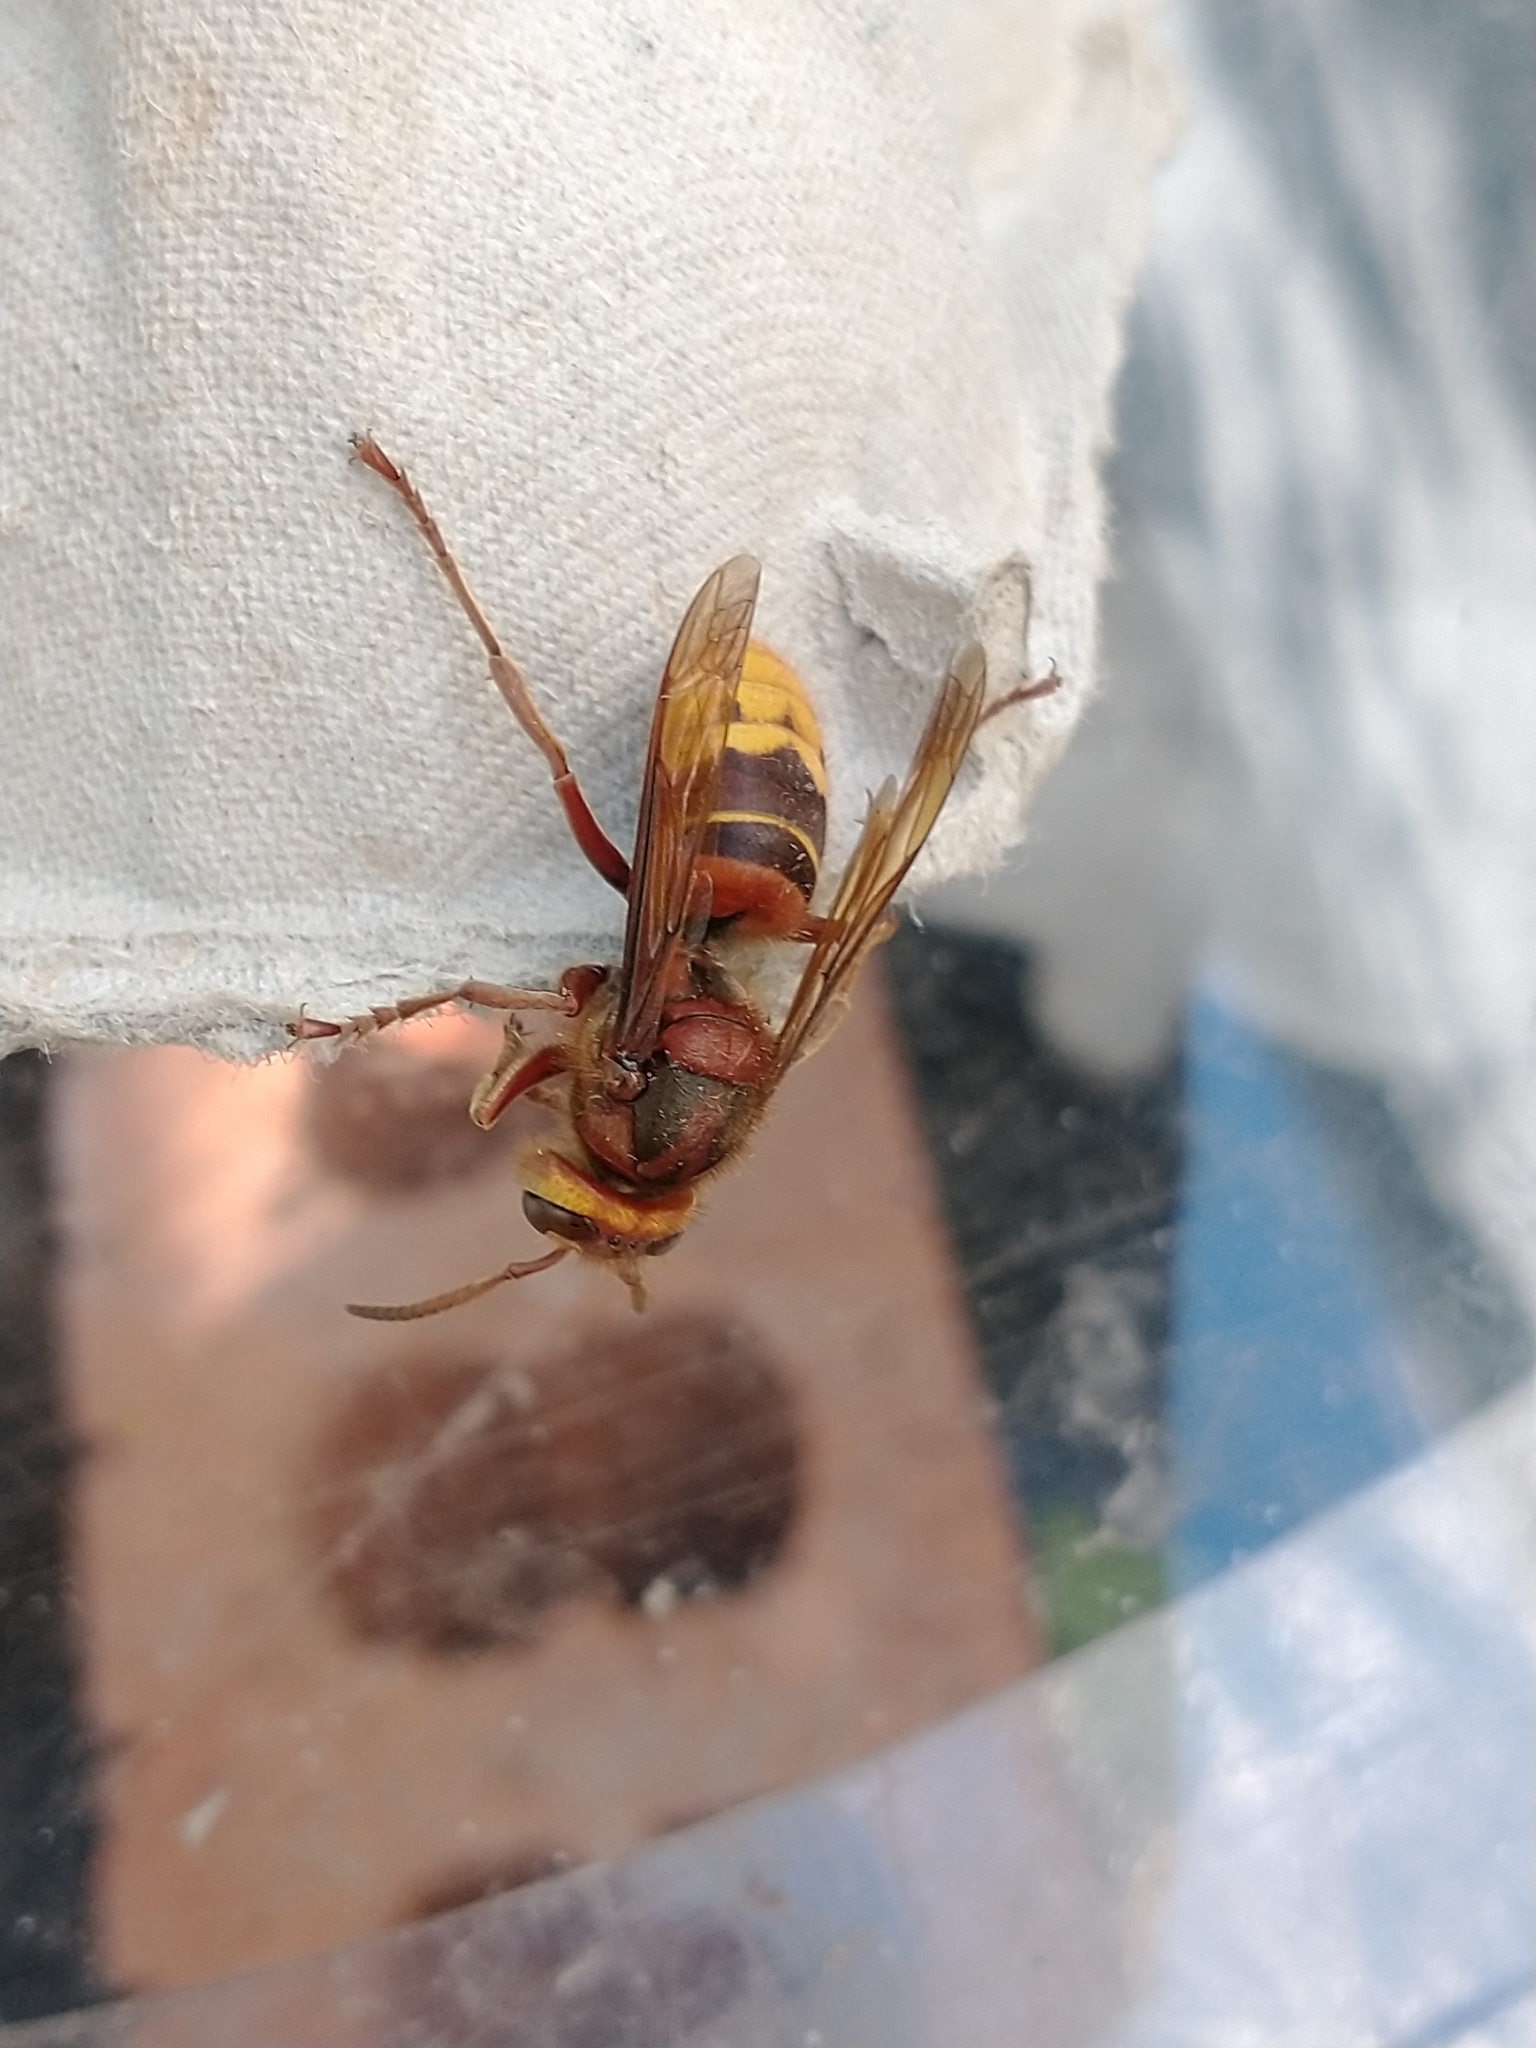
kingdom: Animalia
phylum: Arthropoda
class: Insecta
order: Hymenoptera
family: Vespidae
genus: Vespa
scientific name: Vespa crabro
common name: Hornet
